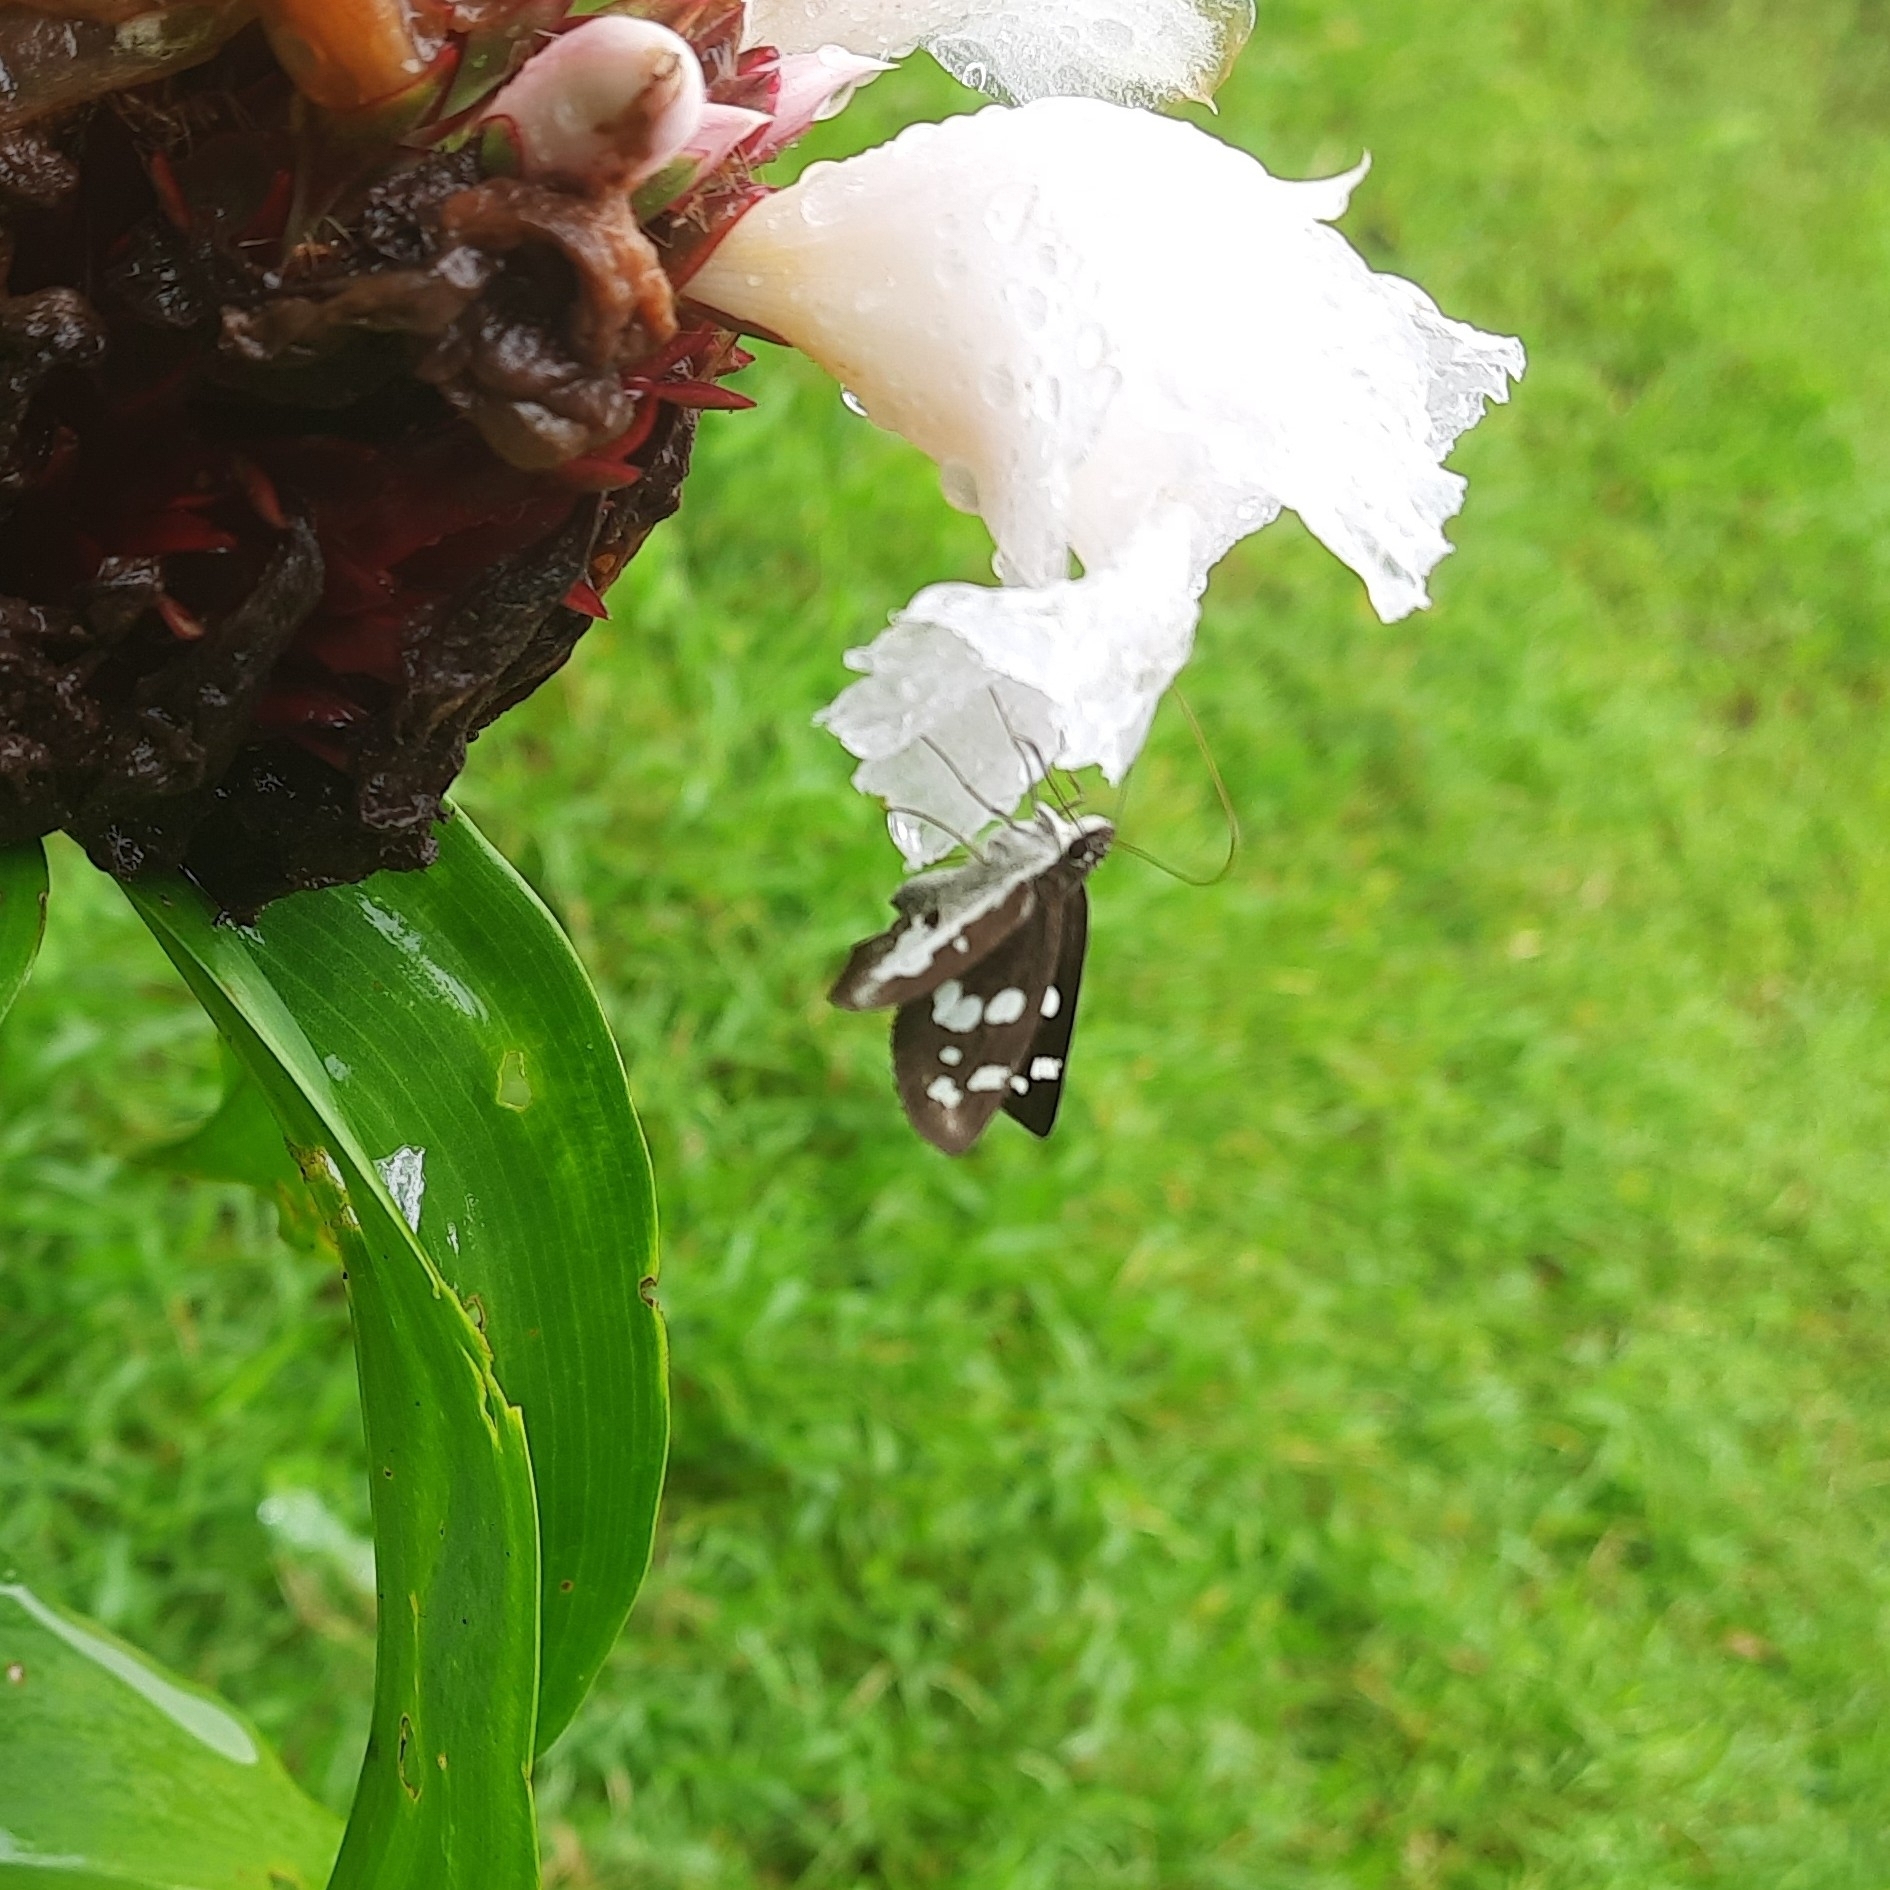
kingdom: Animalia
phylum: Arthropoda
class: Insecta
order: Lepidoptera
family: Hesperiidae
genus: Udaspes
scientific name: Udaspes folus
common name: Grass demon
